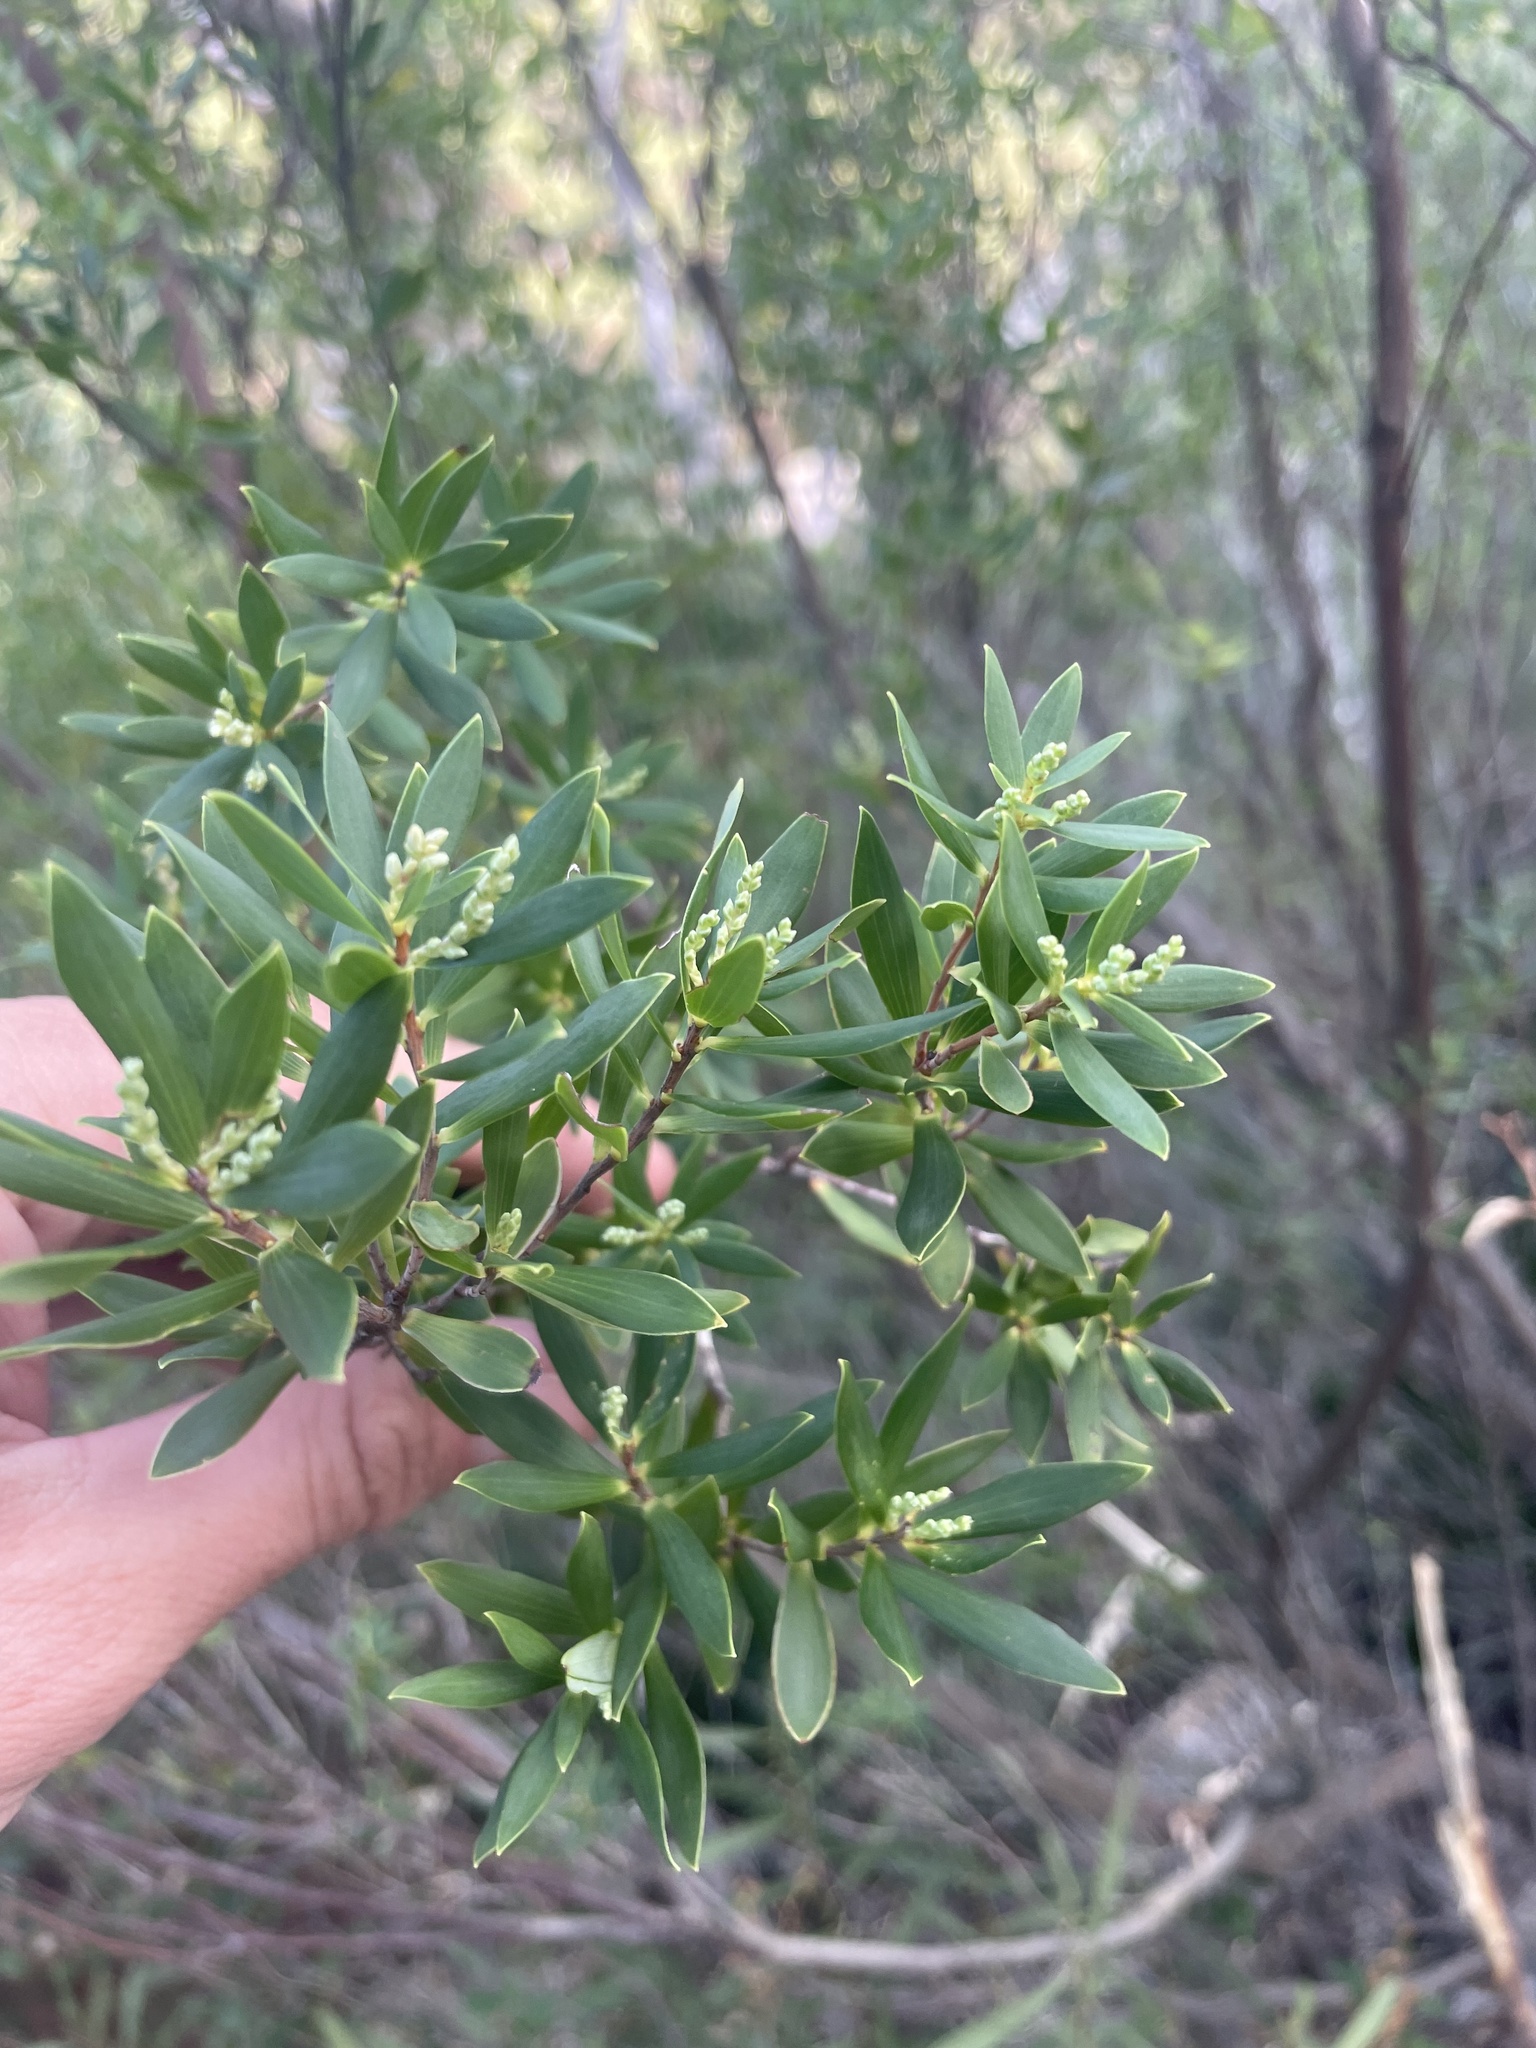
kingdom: Plantae
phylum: Tracheophyta
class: Magnoliopsida
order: Ericales
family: Ericaceae
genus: Leptecophylla
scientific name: Leptecophylla parvifolia
